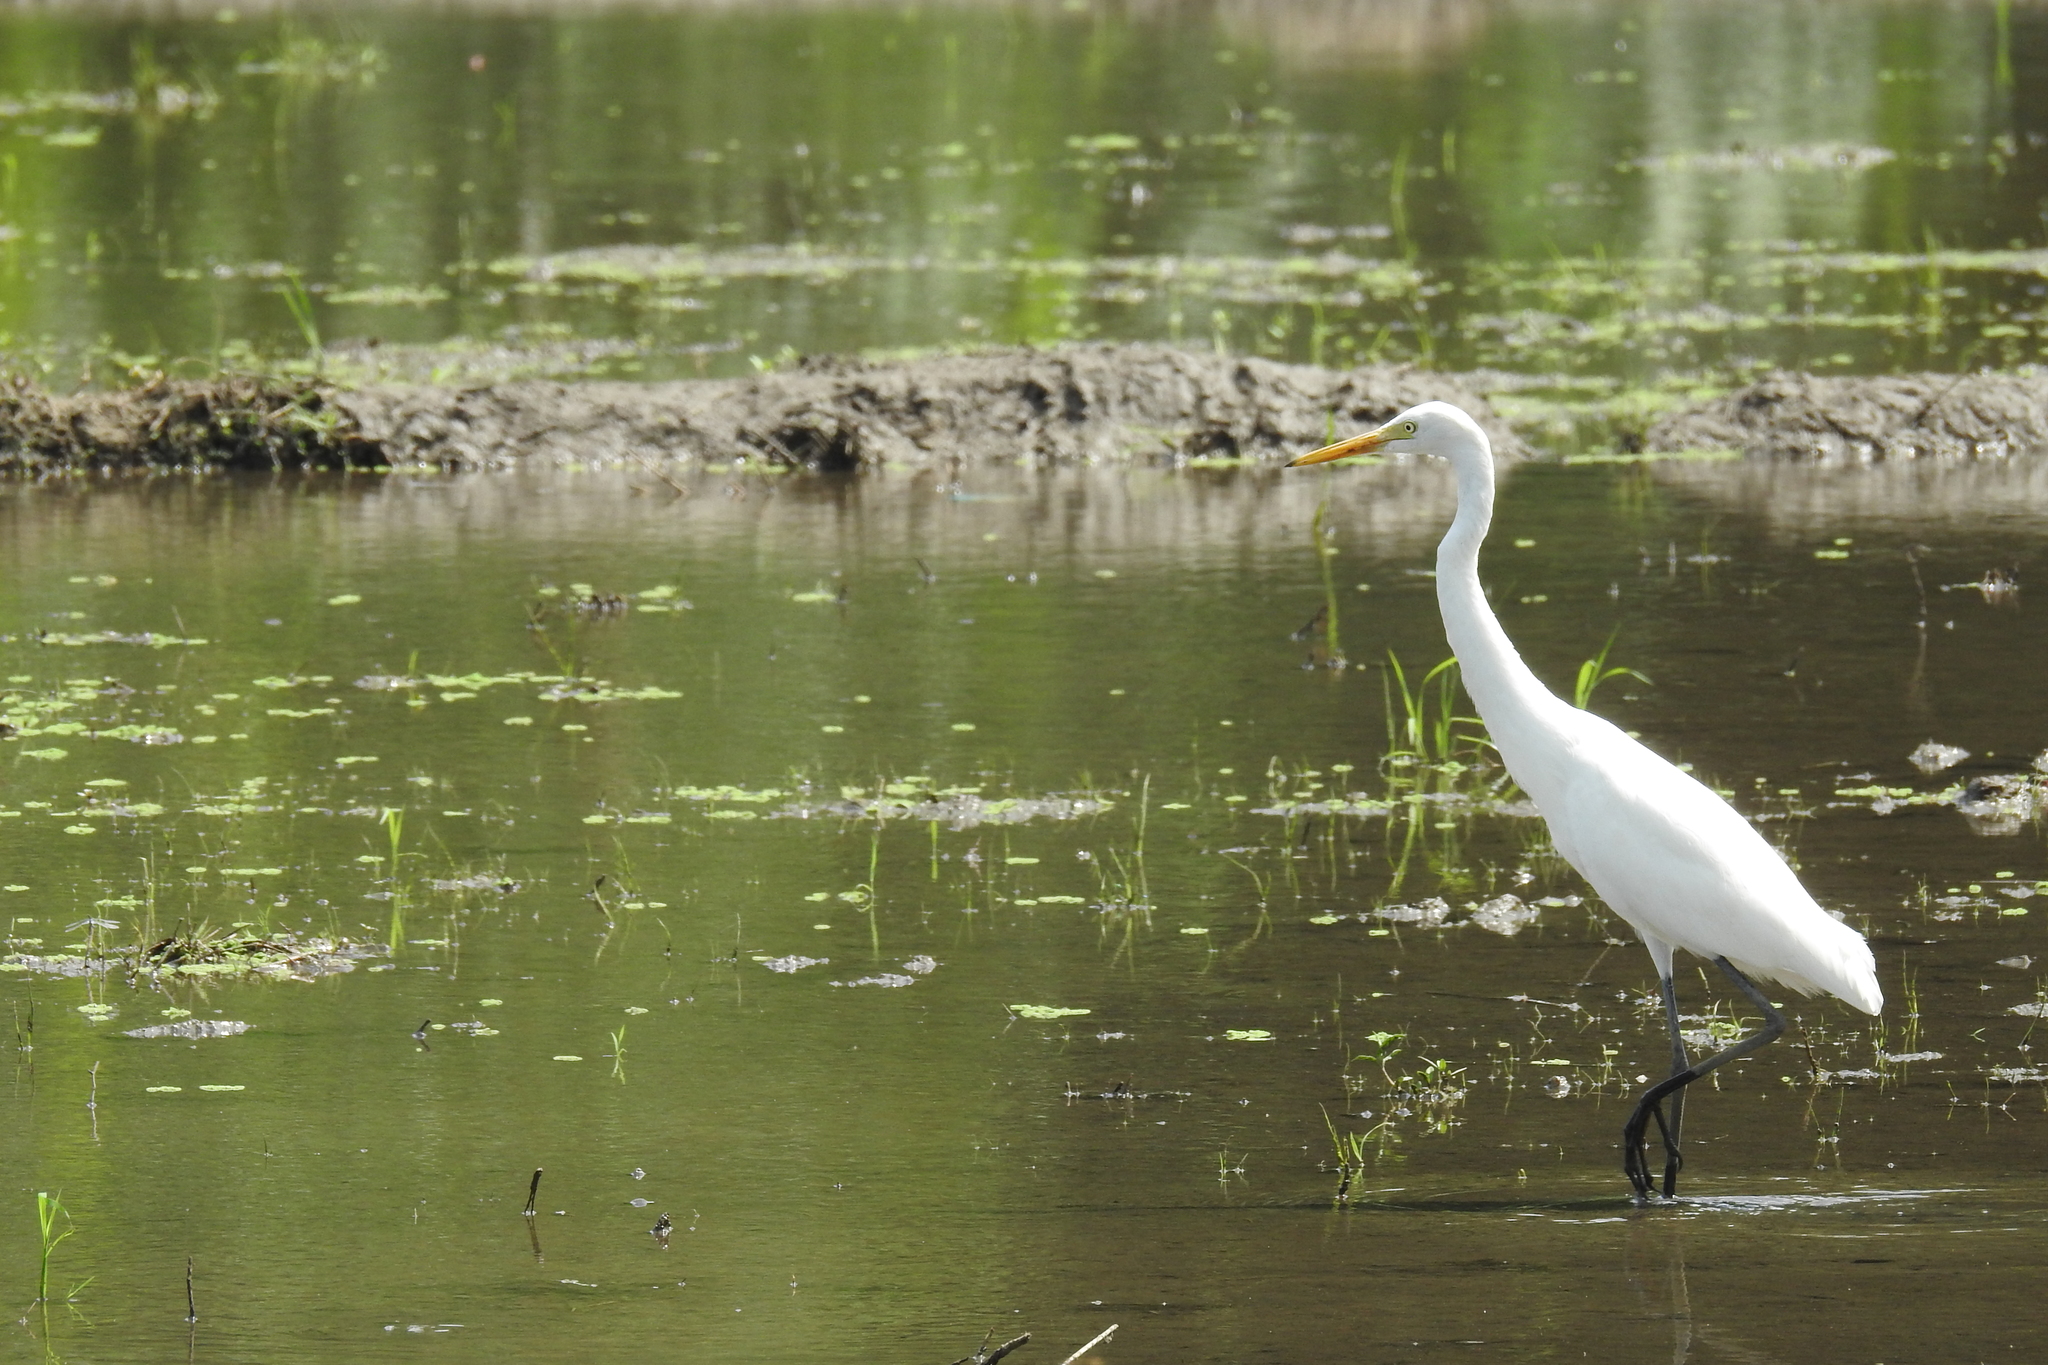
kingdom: Animalia
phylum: Chordata
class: Aves
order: Pelecaniformes
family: Ardeidae
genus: Egretta
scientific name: Egretta intermedia
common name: Intermediate egret
